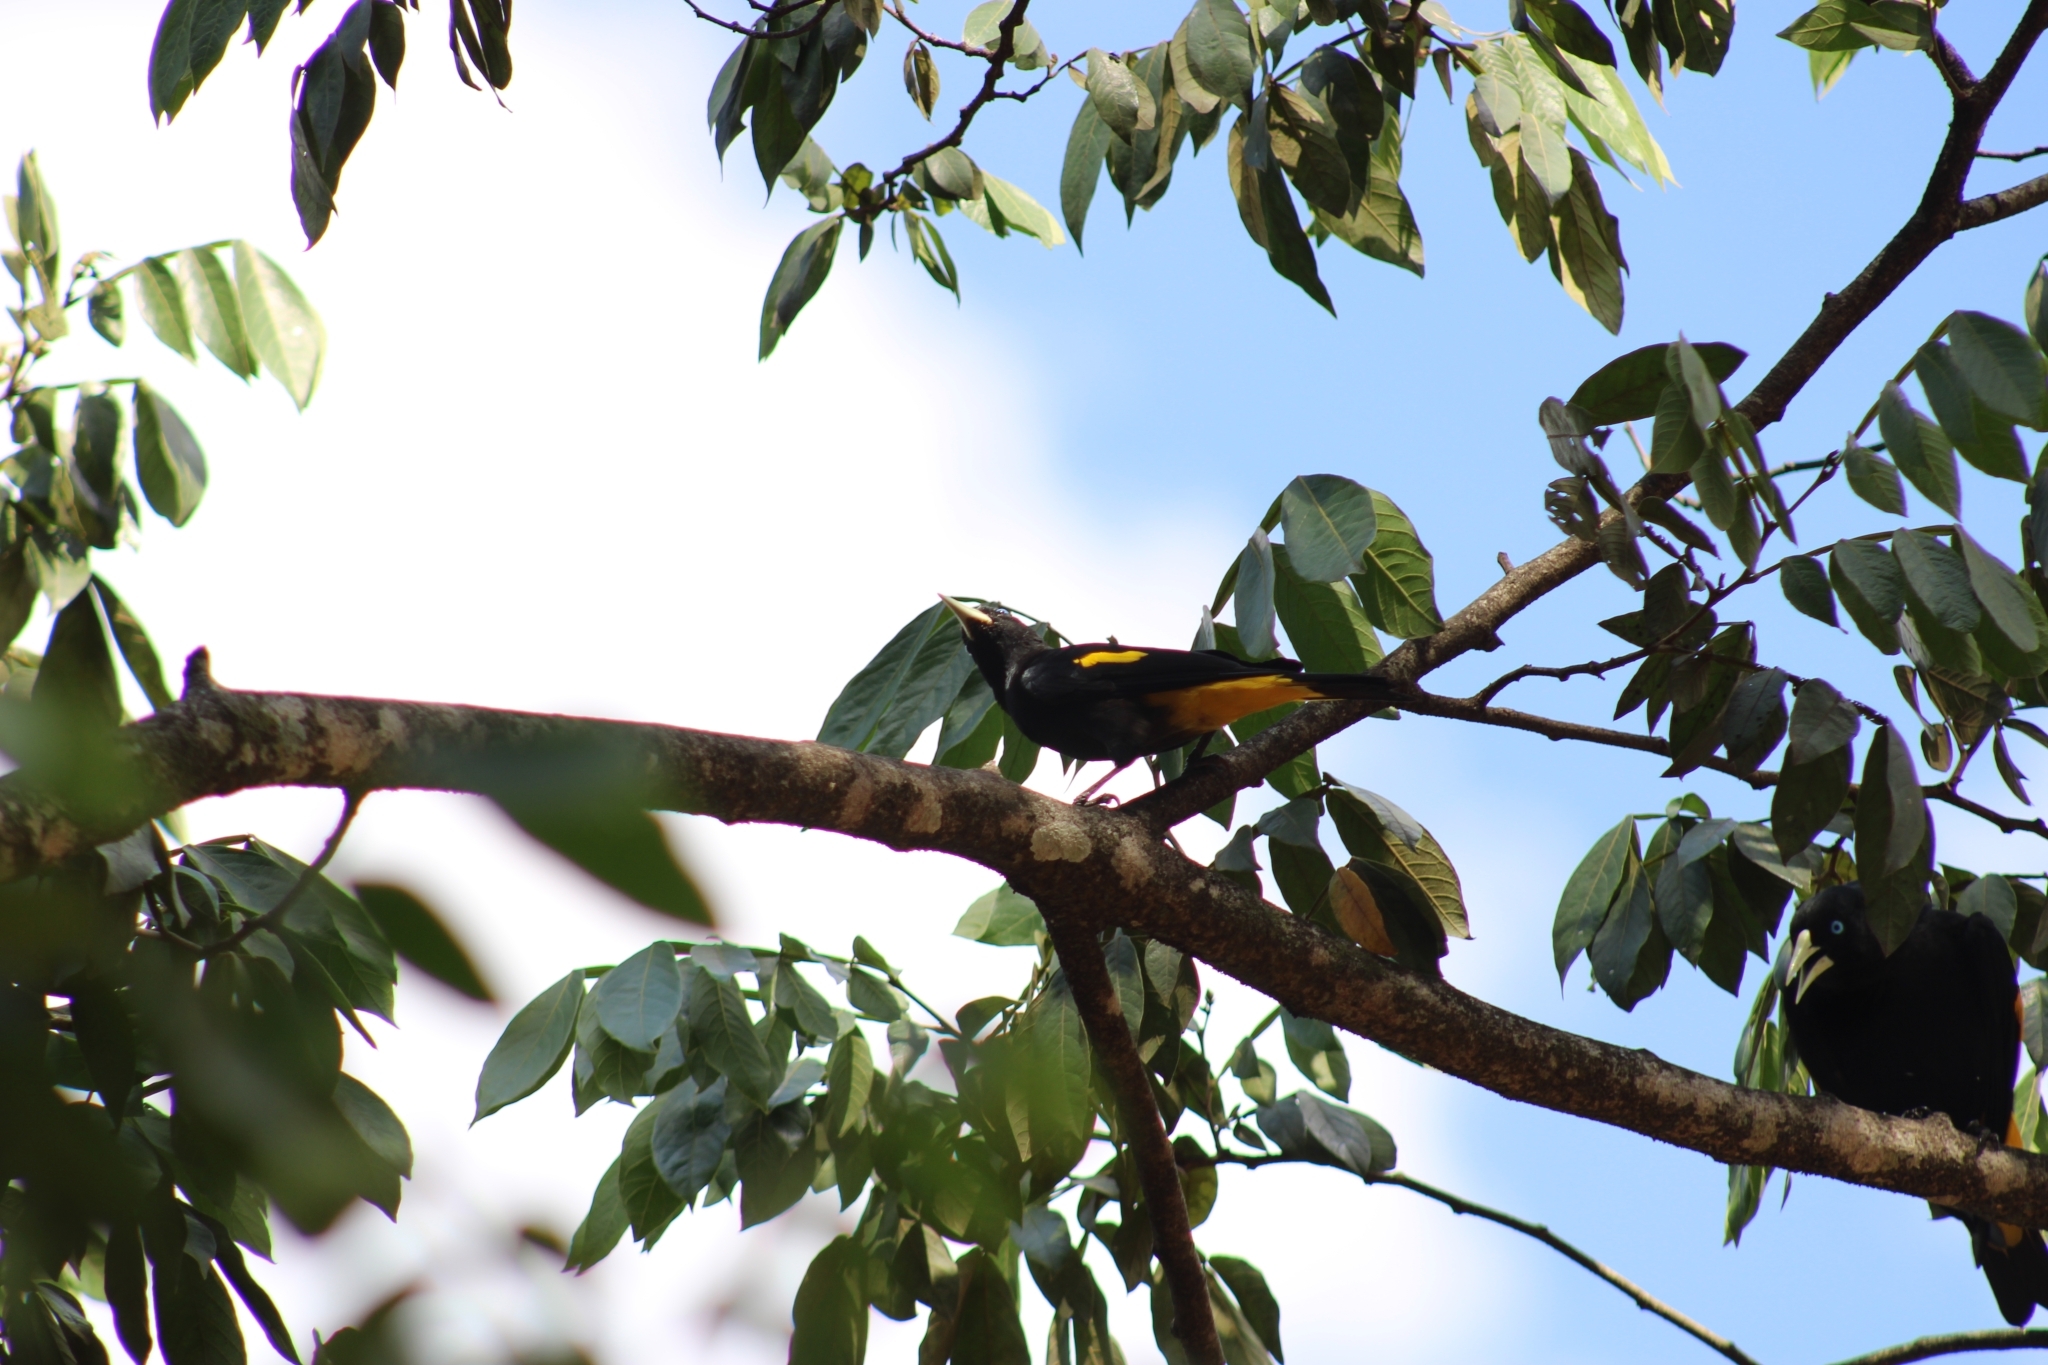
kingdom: Animalia
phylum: Chordata
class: Aves
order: Passeriformes
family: Icteridae
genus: Cacicus
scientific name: Cacicus cela
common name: Yellow-rumped cacique
